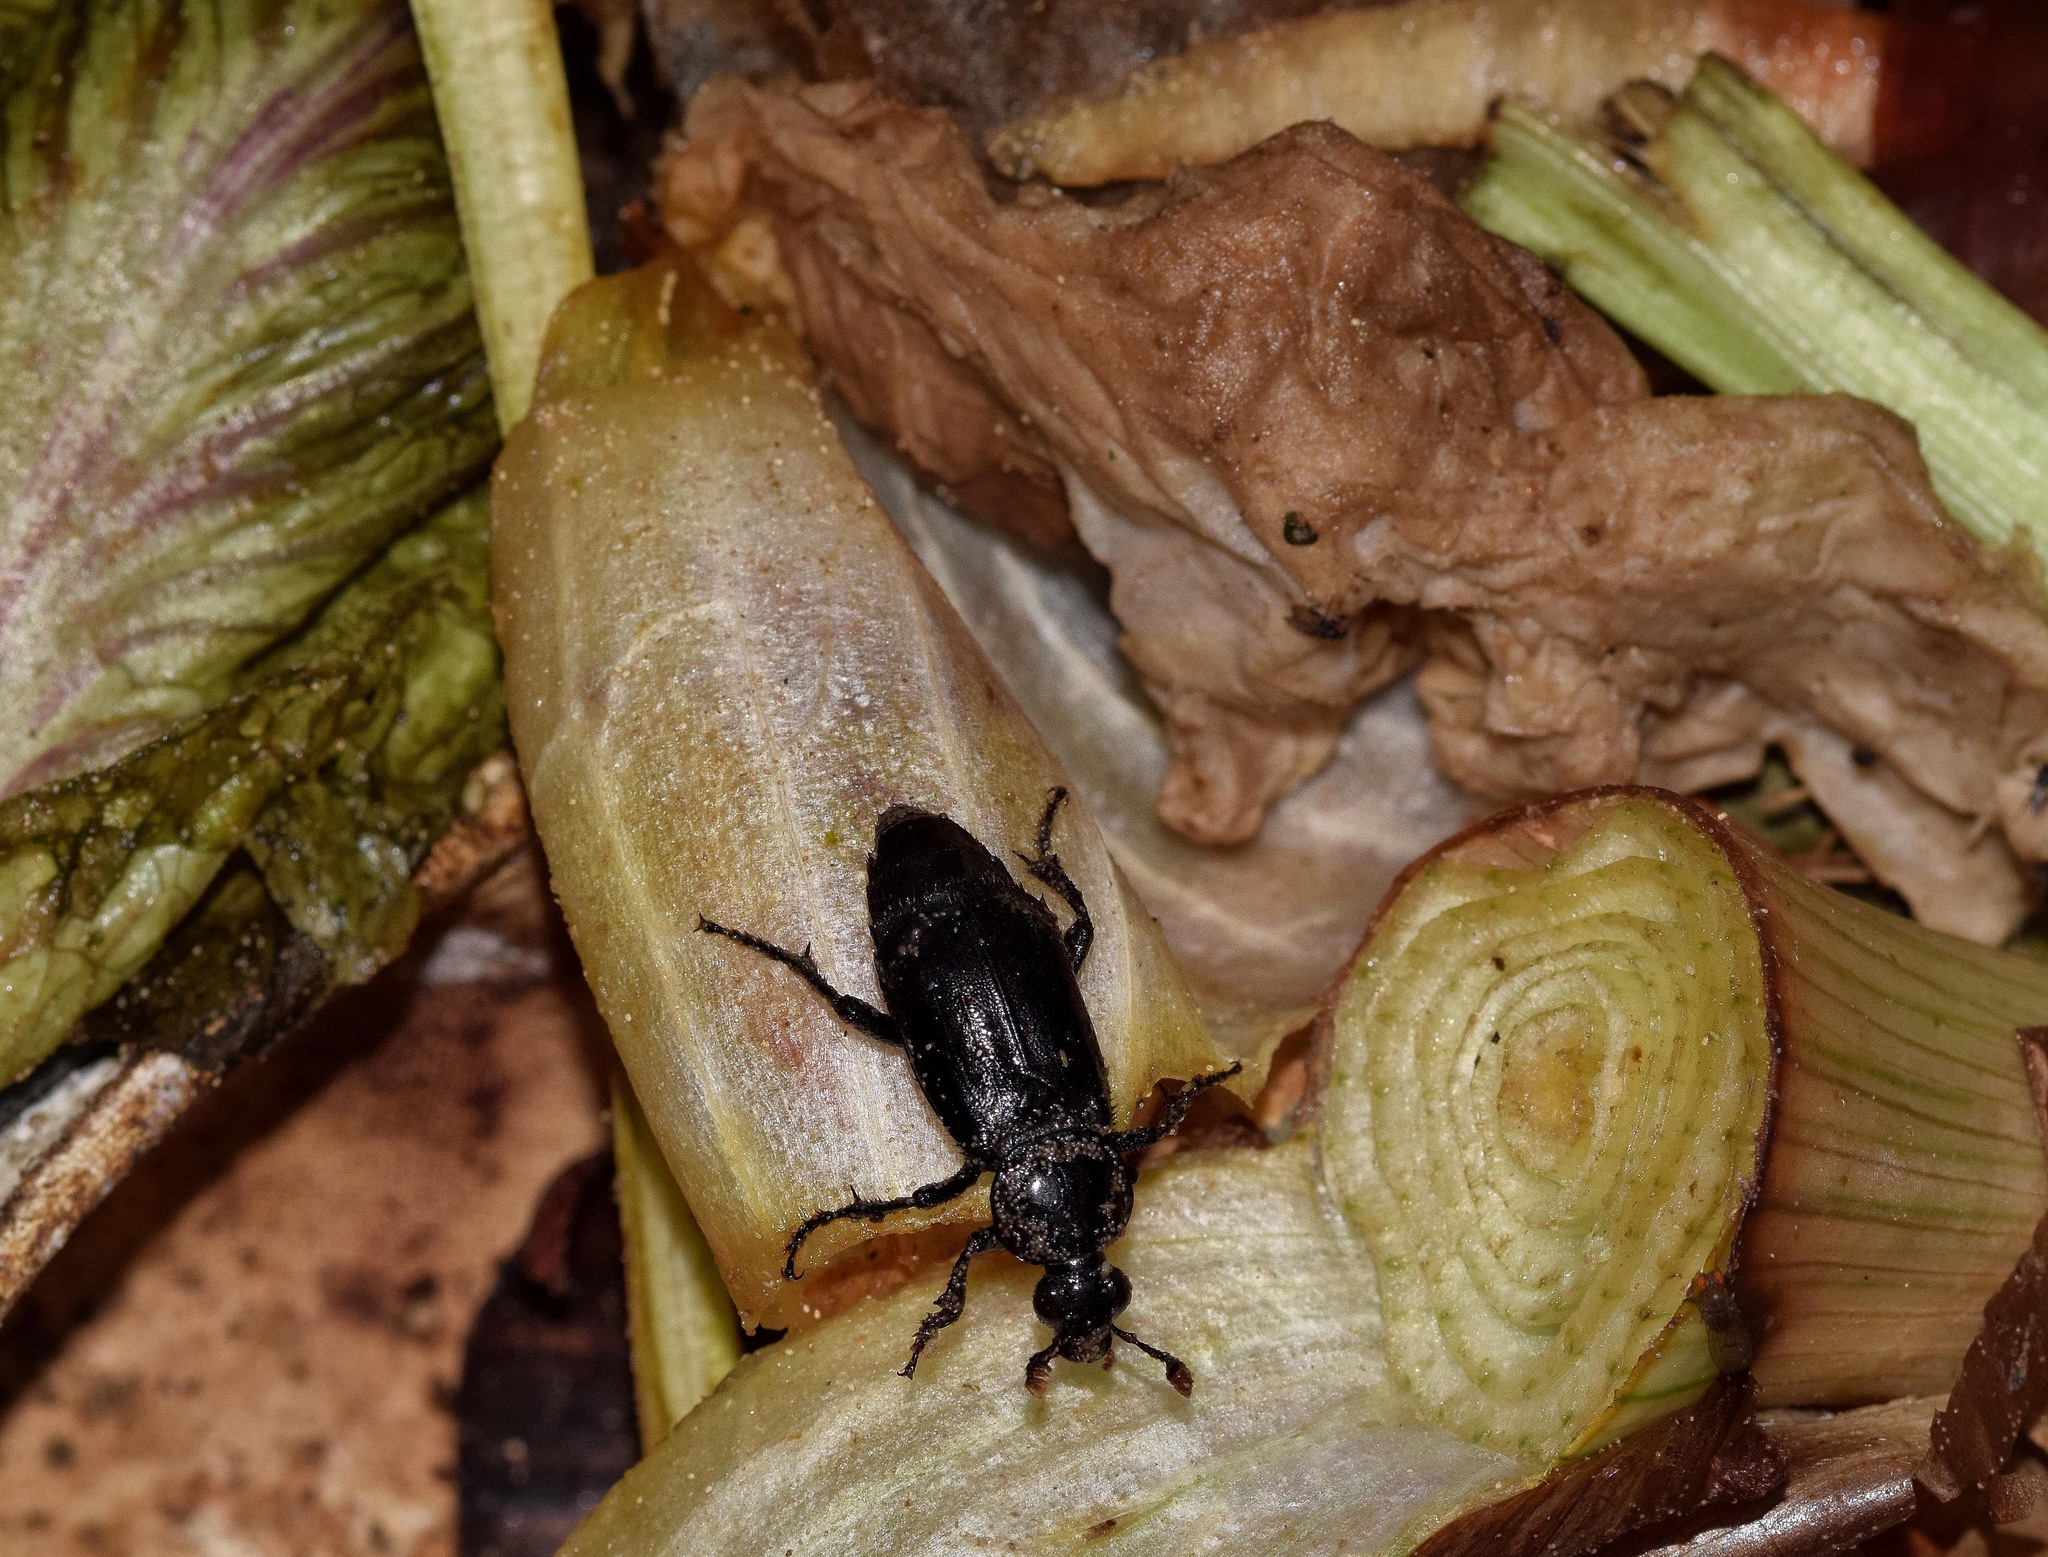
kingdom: Animalia
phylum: Arthropoda
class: Insecta
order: Coleoptera
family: Staphylinidae
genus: Nicrophorus
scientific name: Nicrophorus humator
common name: Black sexton beetle
